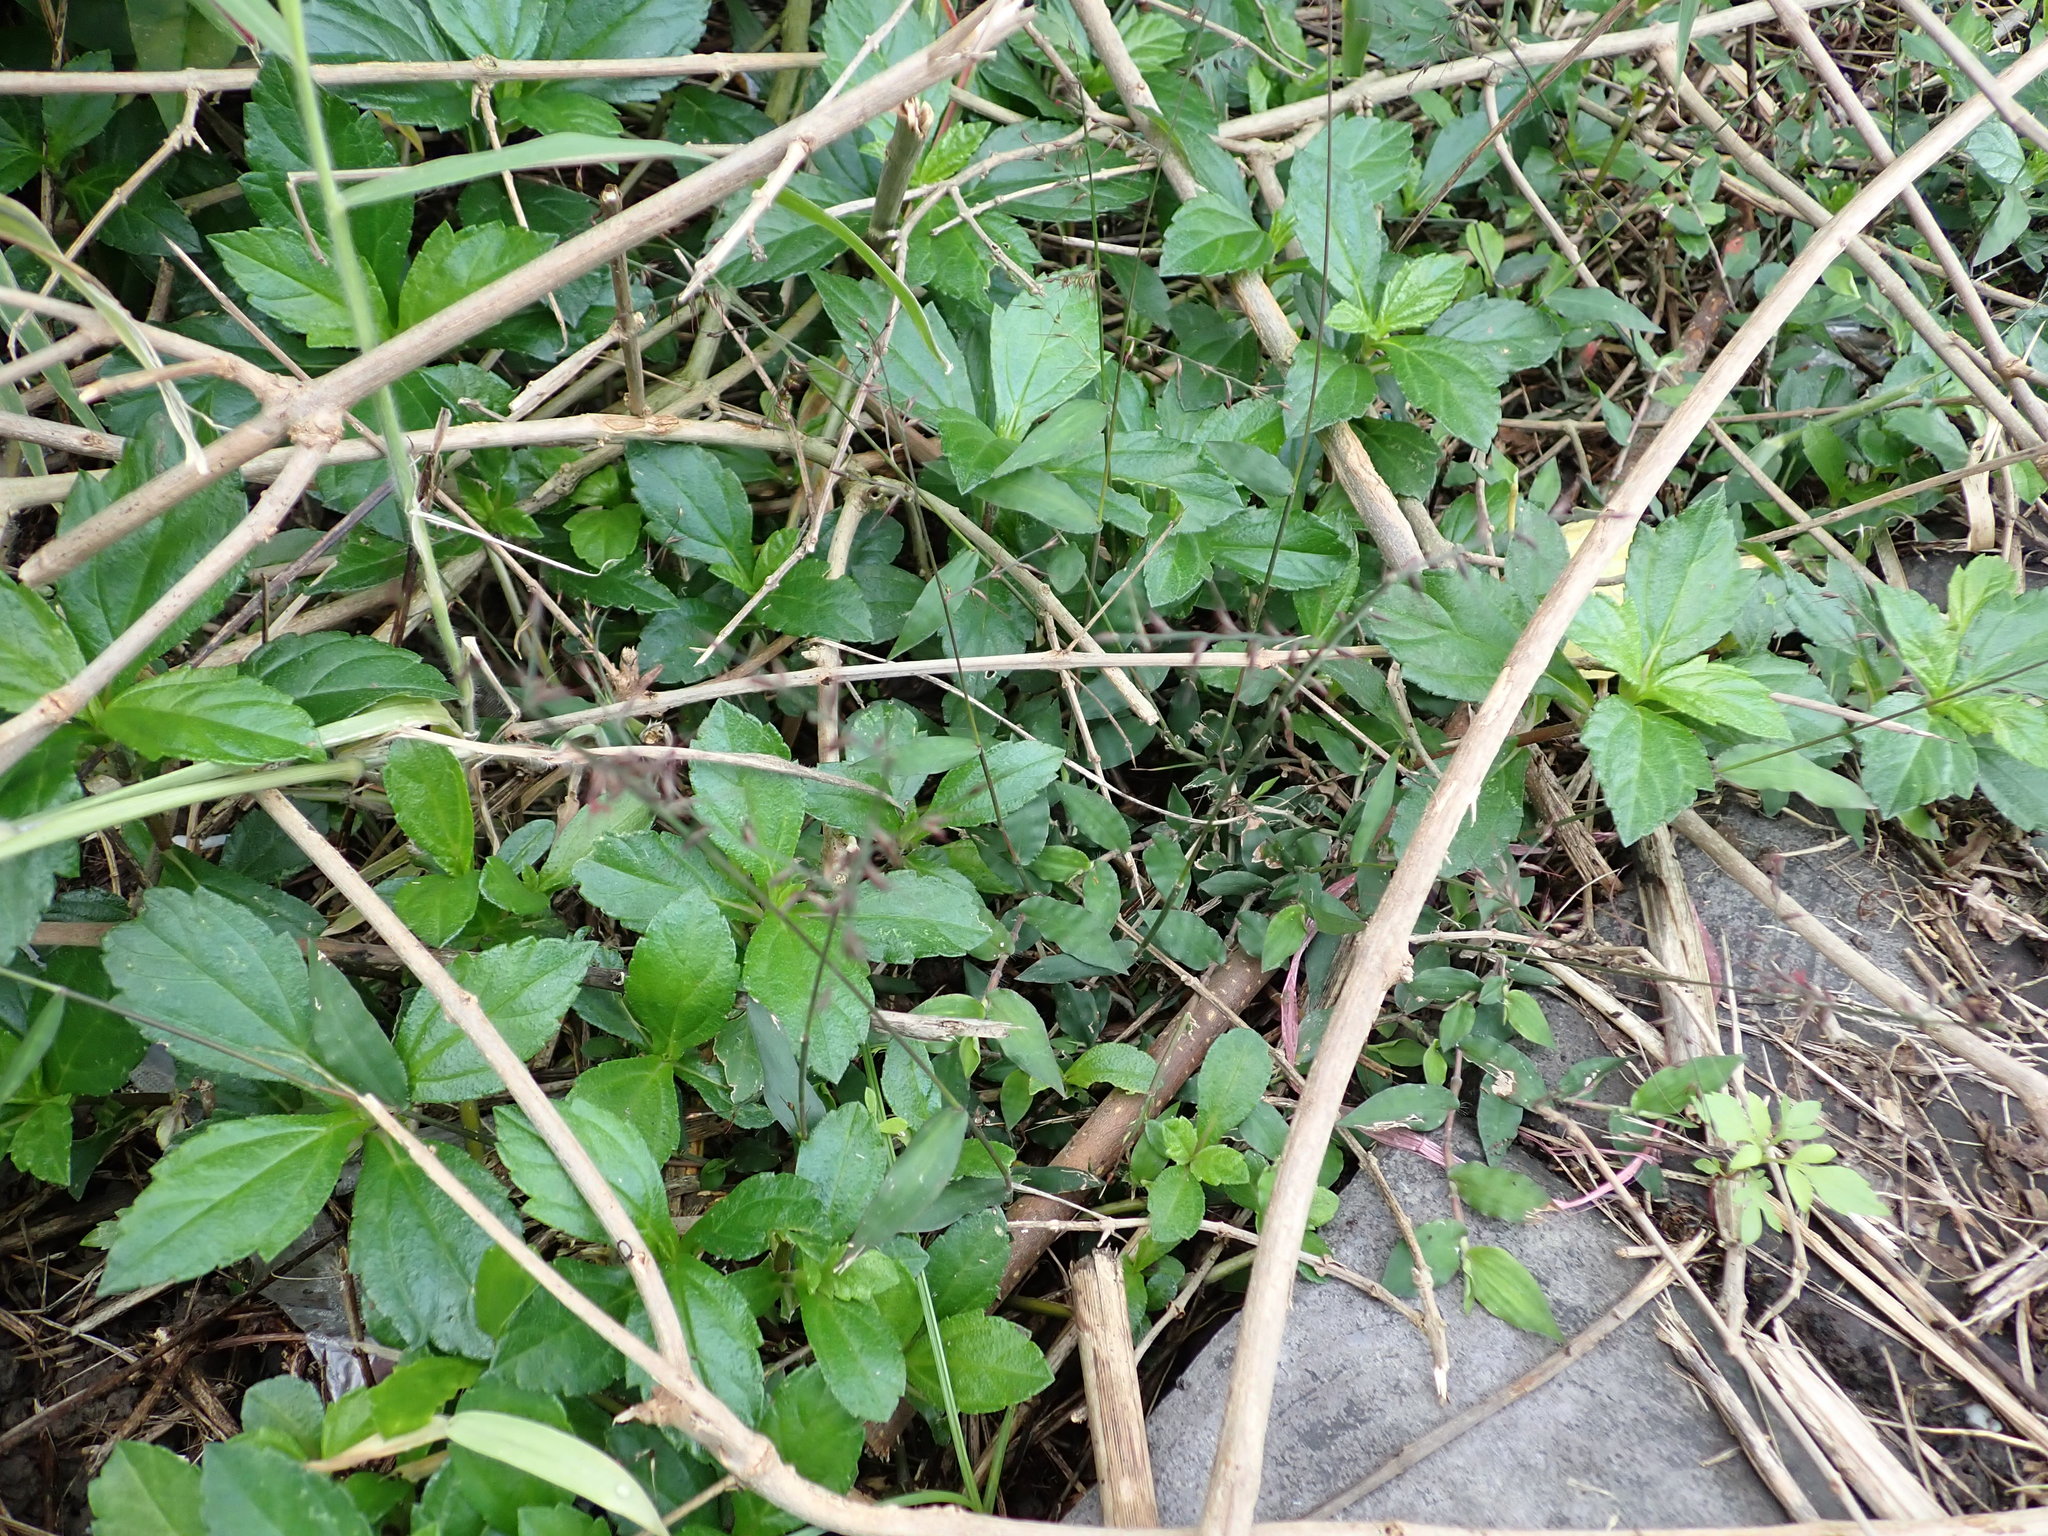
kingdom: Plantae
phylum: Tracheophyta
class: Liliopsida
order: Poales
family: Poaceae
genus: Oplismenus
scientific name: Oplismenus compositus
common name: Running mountain grass
